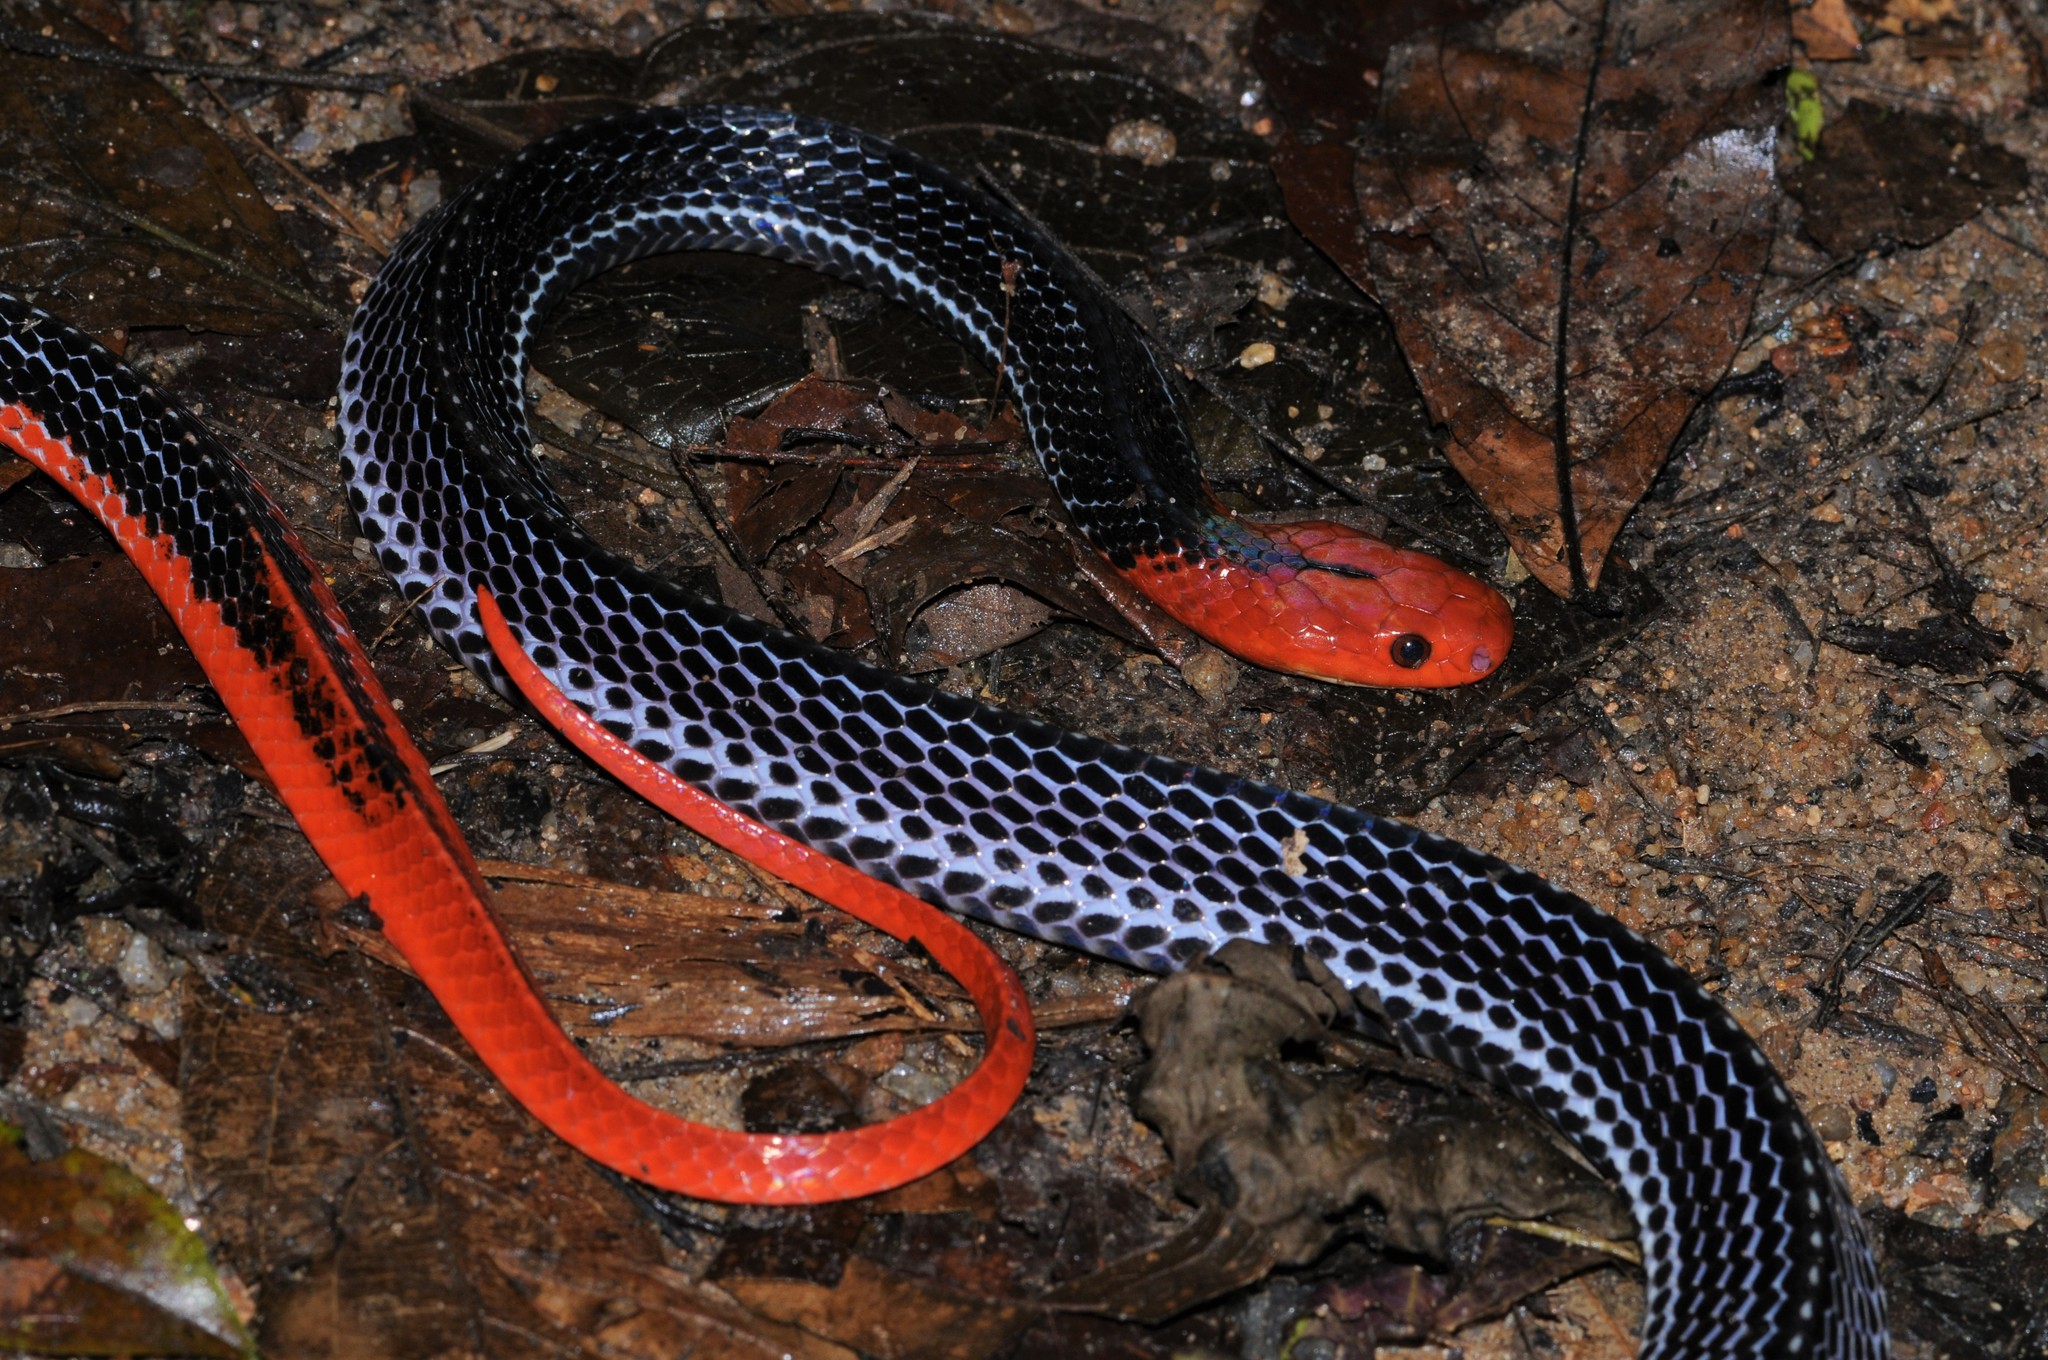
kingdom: Animalia
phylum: Chordata
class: Squamata
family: Elapidae
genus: Bungarus
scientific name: Bungarus flaviceps
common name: Red-headed krait
